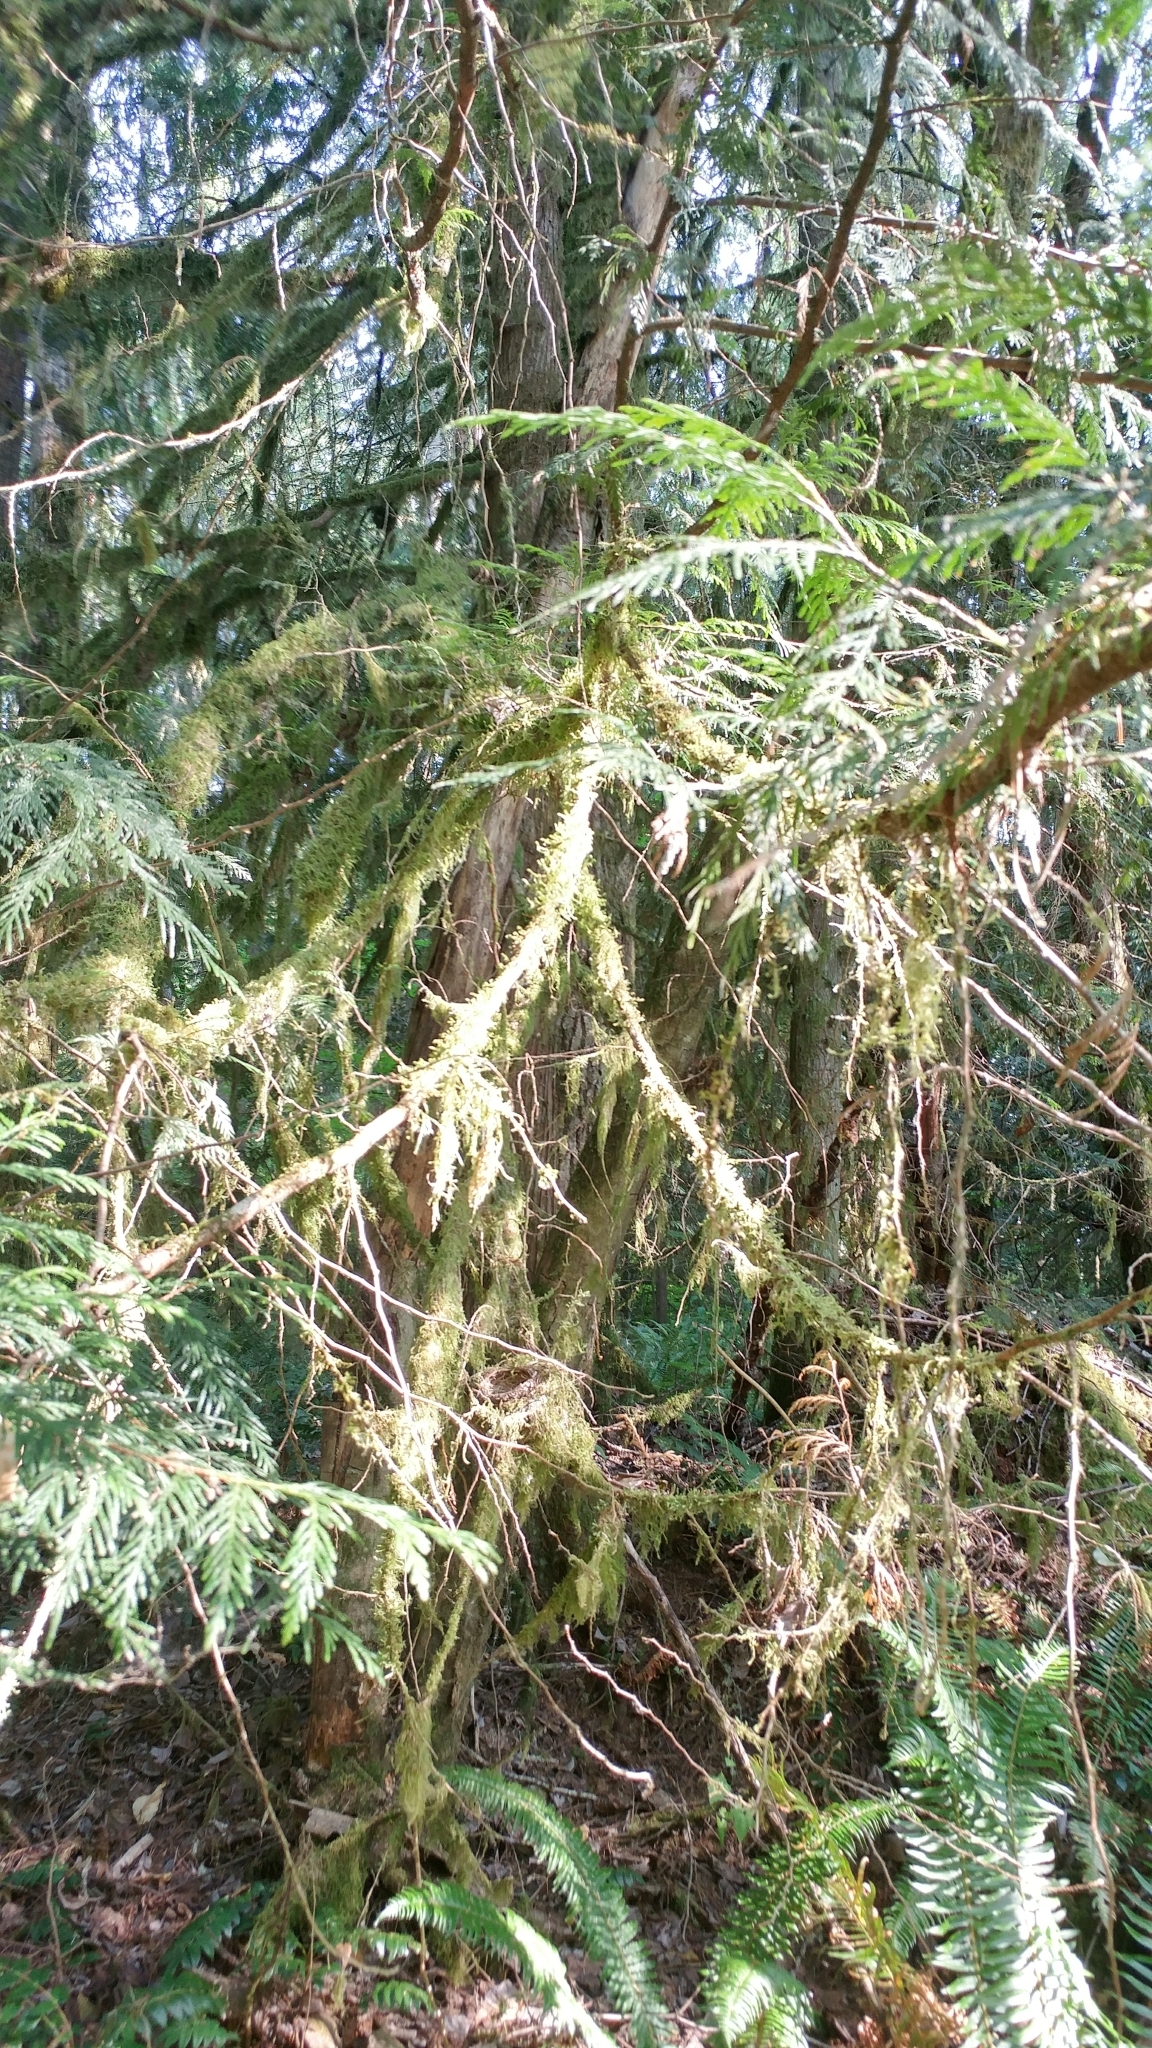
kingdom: Animalia
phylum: Chordata
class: Aves
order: Passeriformes
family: Turdidae
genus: Ixoreus
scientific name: Ixoreus naevius
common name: Varied thrush
